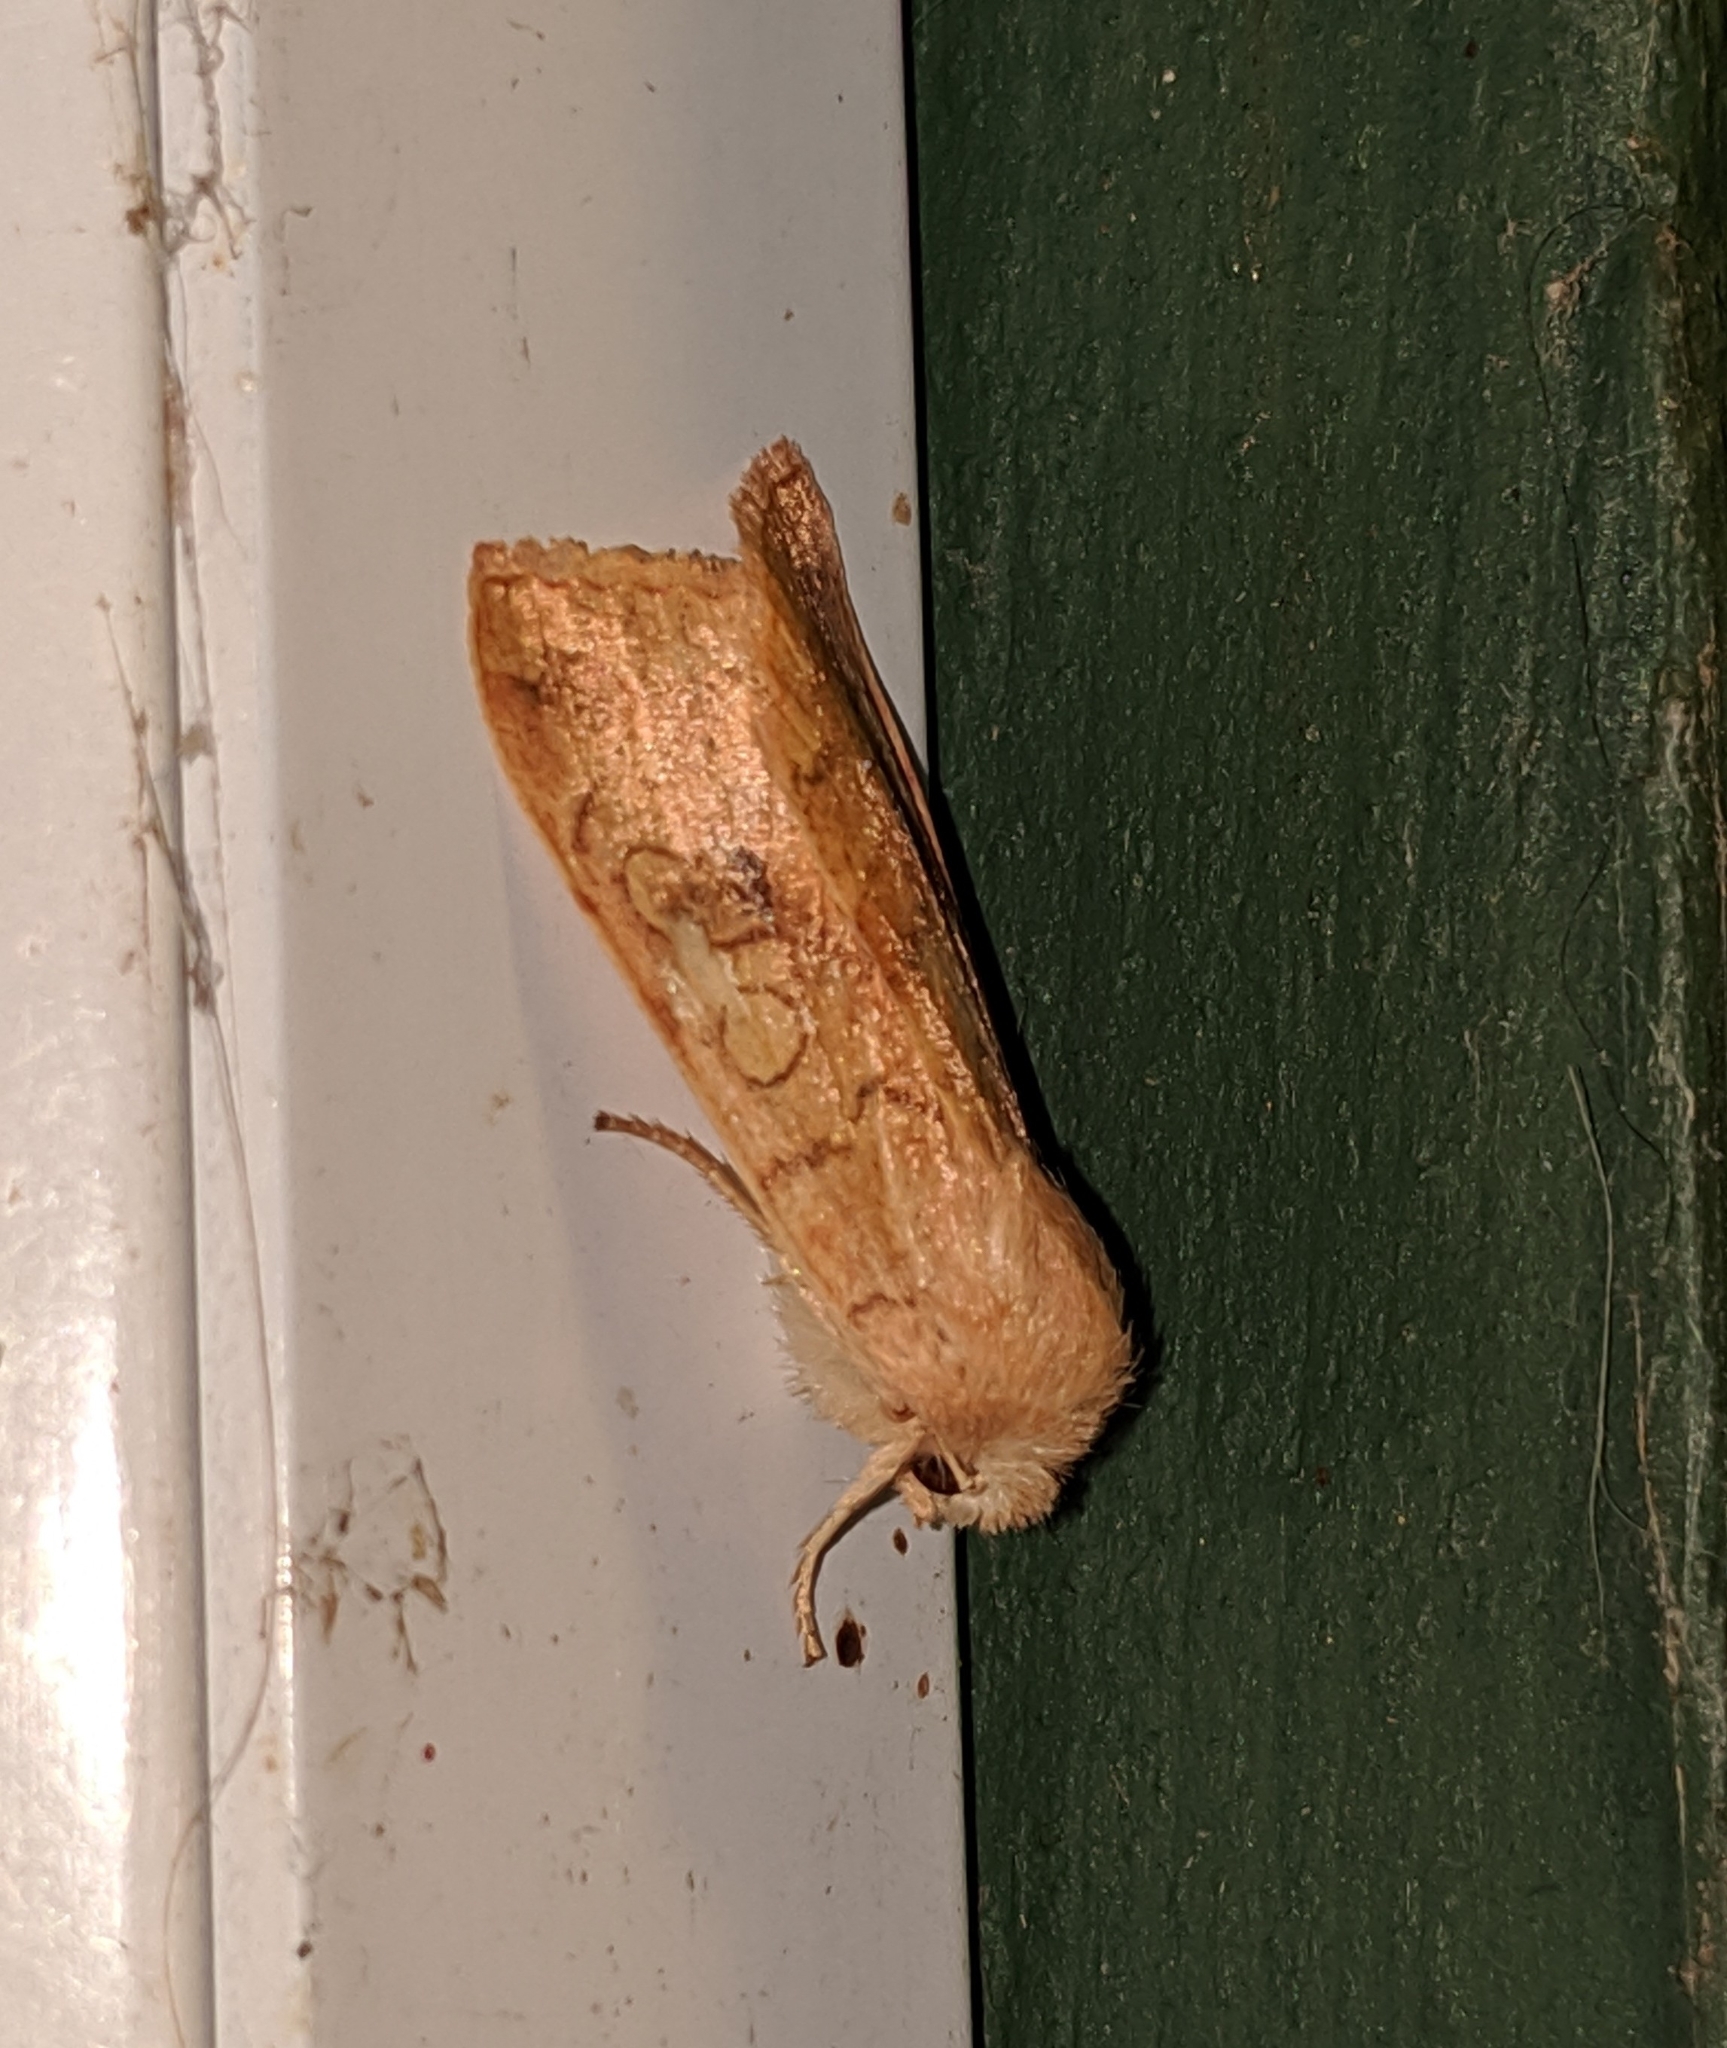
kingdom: Animalia
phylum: Arthropoda
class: Insecta
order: Lepidoptera
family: Noctuidae
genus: Agrochola
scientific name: Agrochola decipiens
